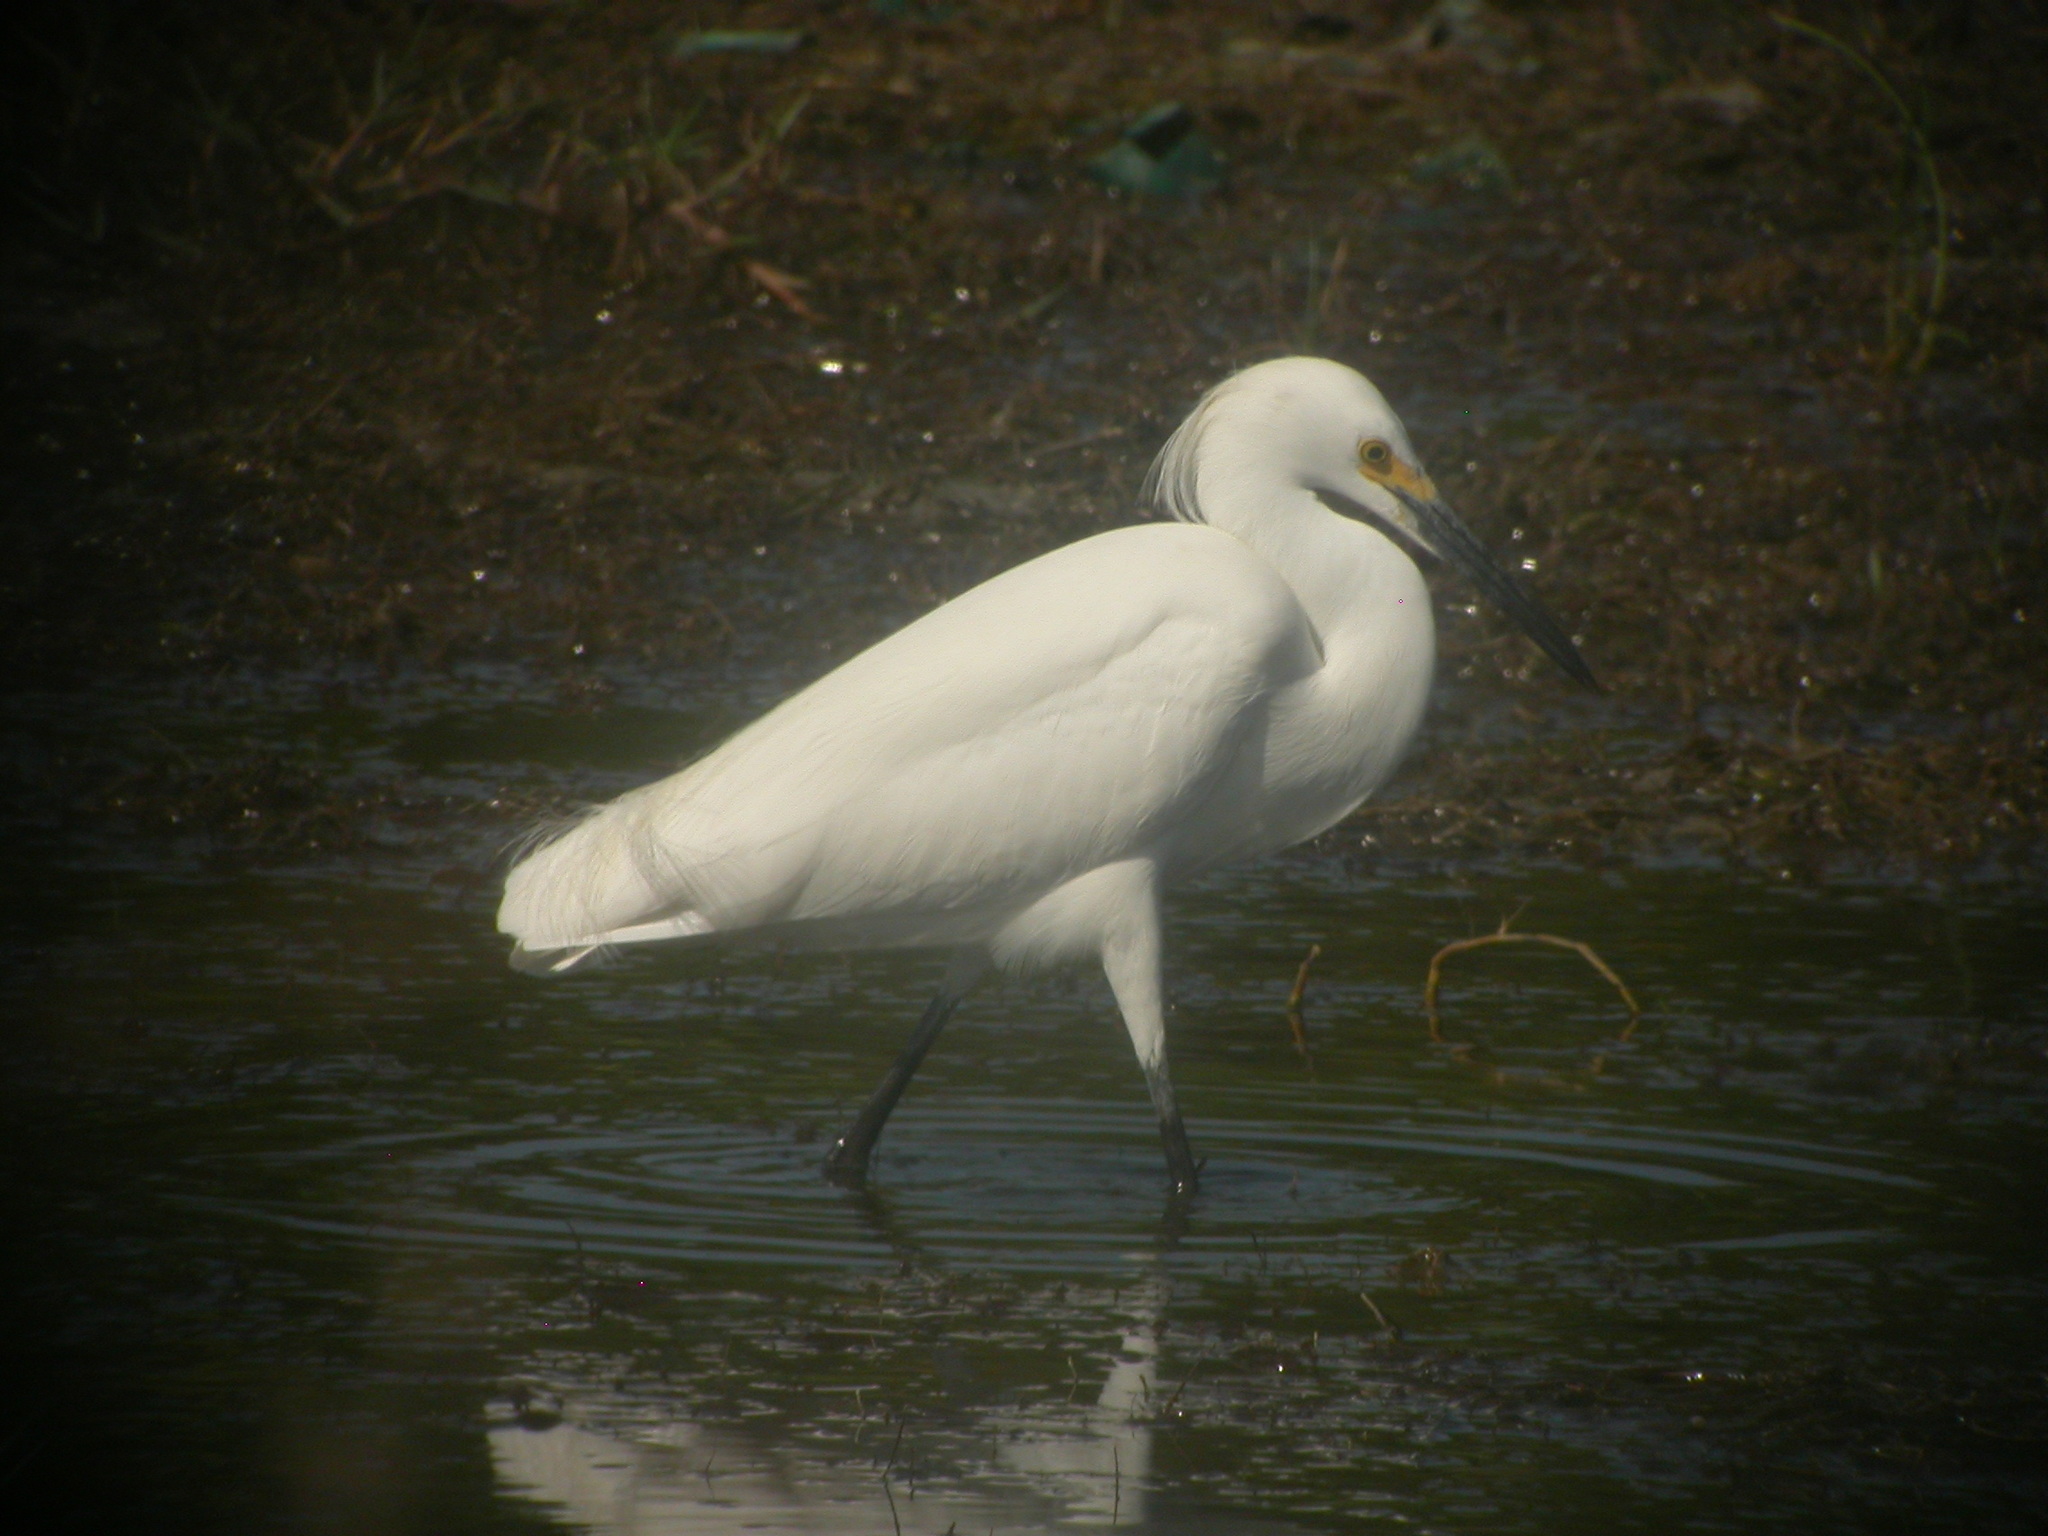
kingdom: Animalia
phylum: Chordata
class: Aves
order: Pelecaniformes
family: Ardeidae
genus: Egretta
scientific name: Egretta thula
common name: Snowy egret
